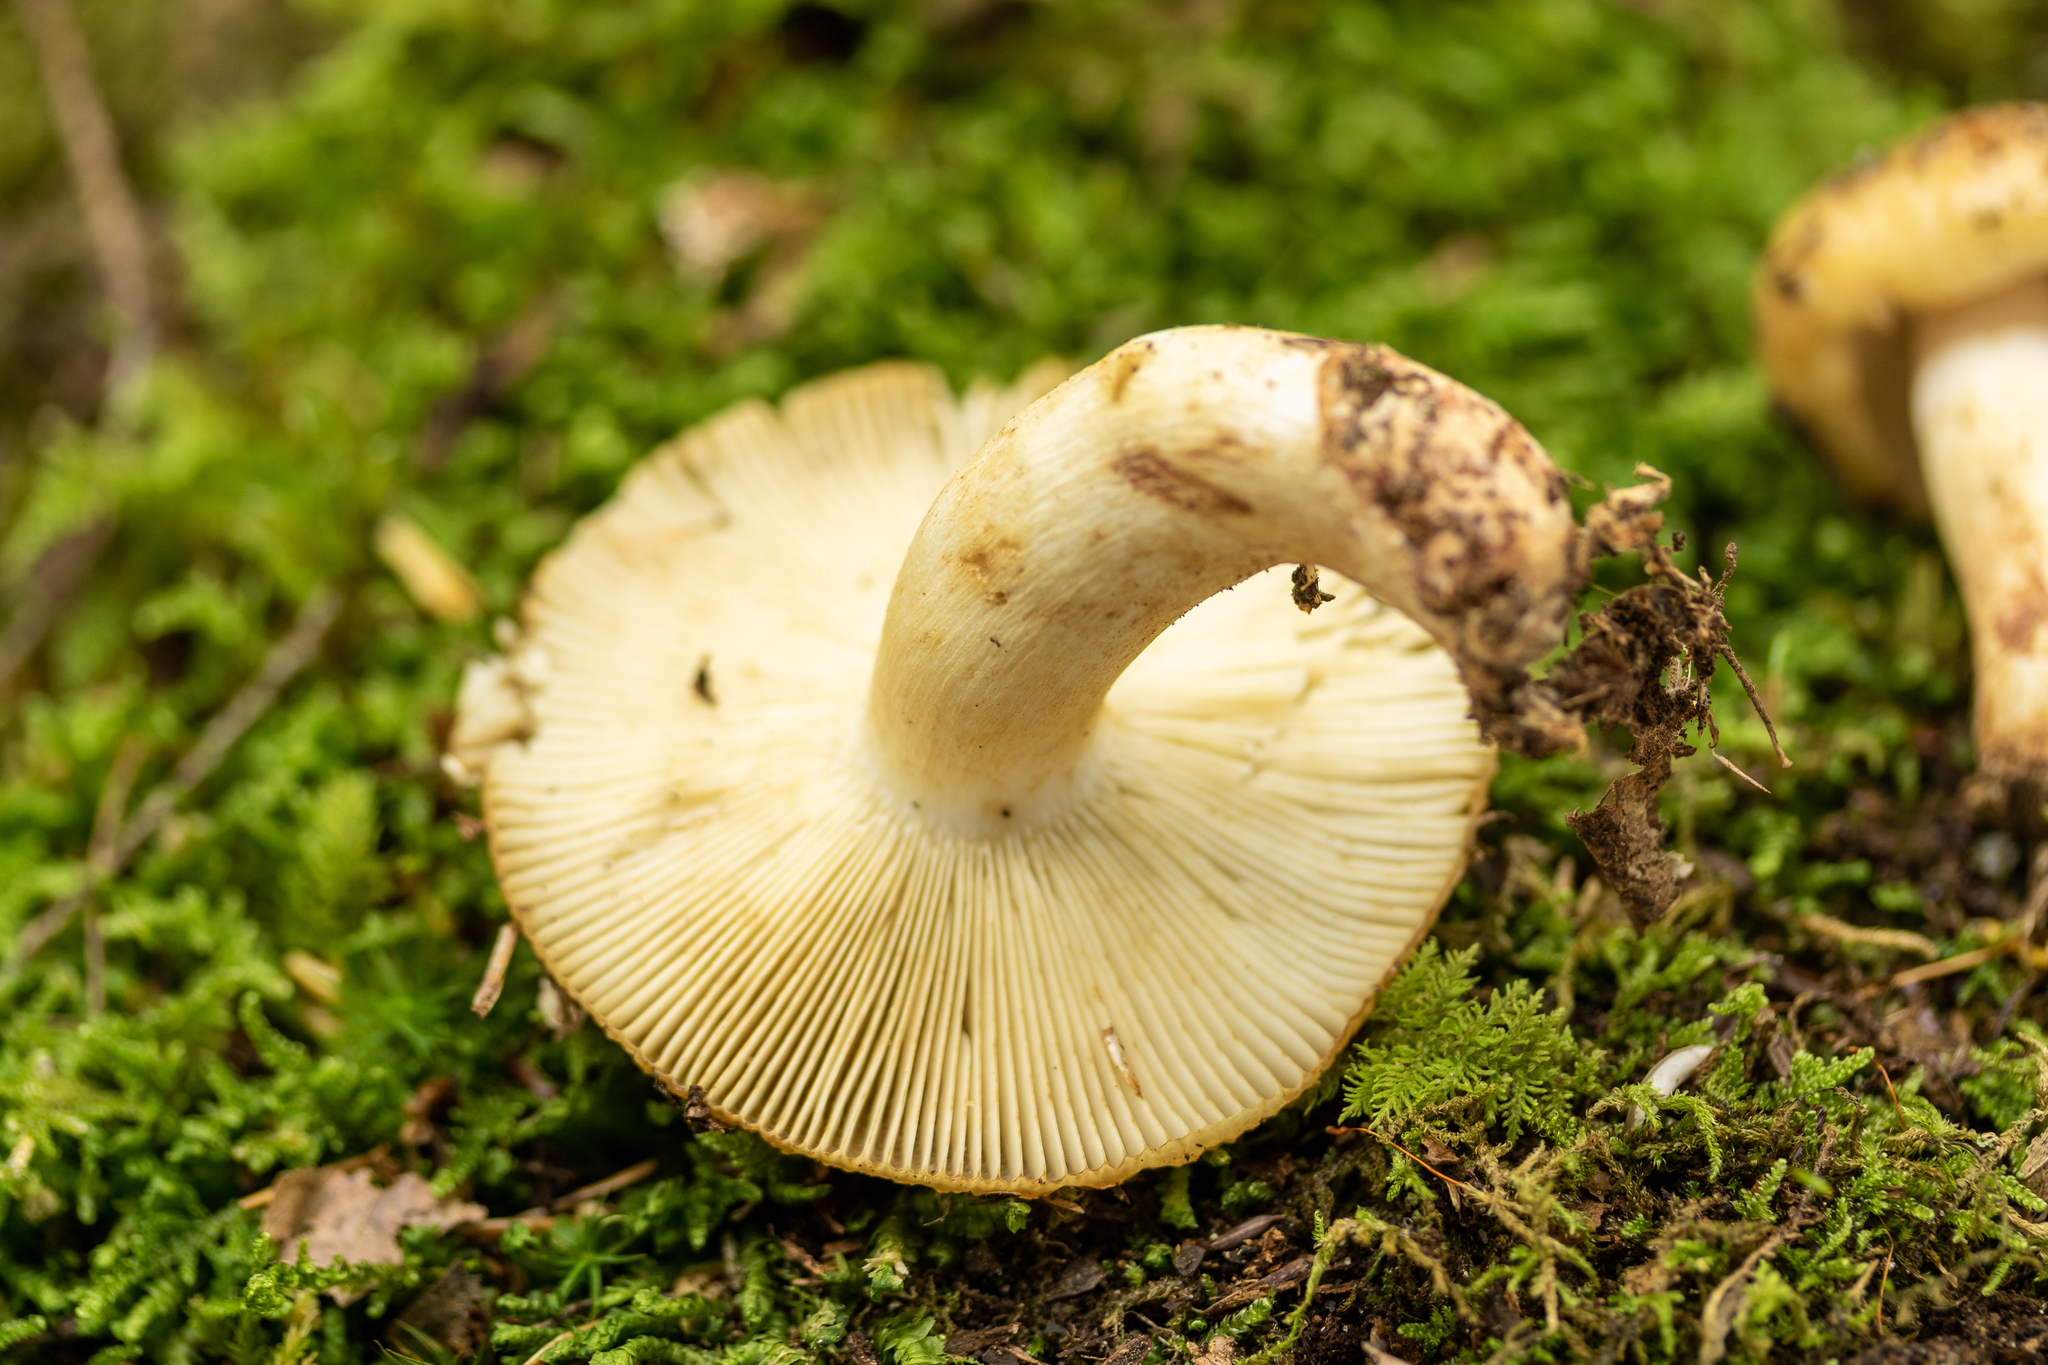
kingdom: Fungi
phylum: Basidiomycota
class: Agaricomycetes
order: Russulales
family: Russulaceae
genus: Russula
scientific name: Russula granulata
